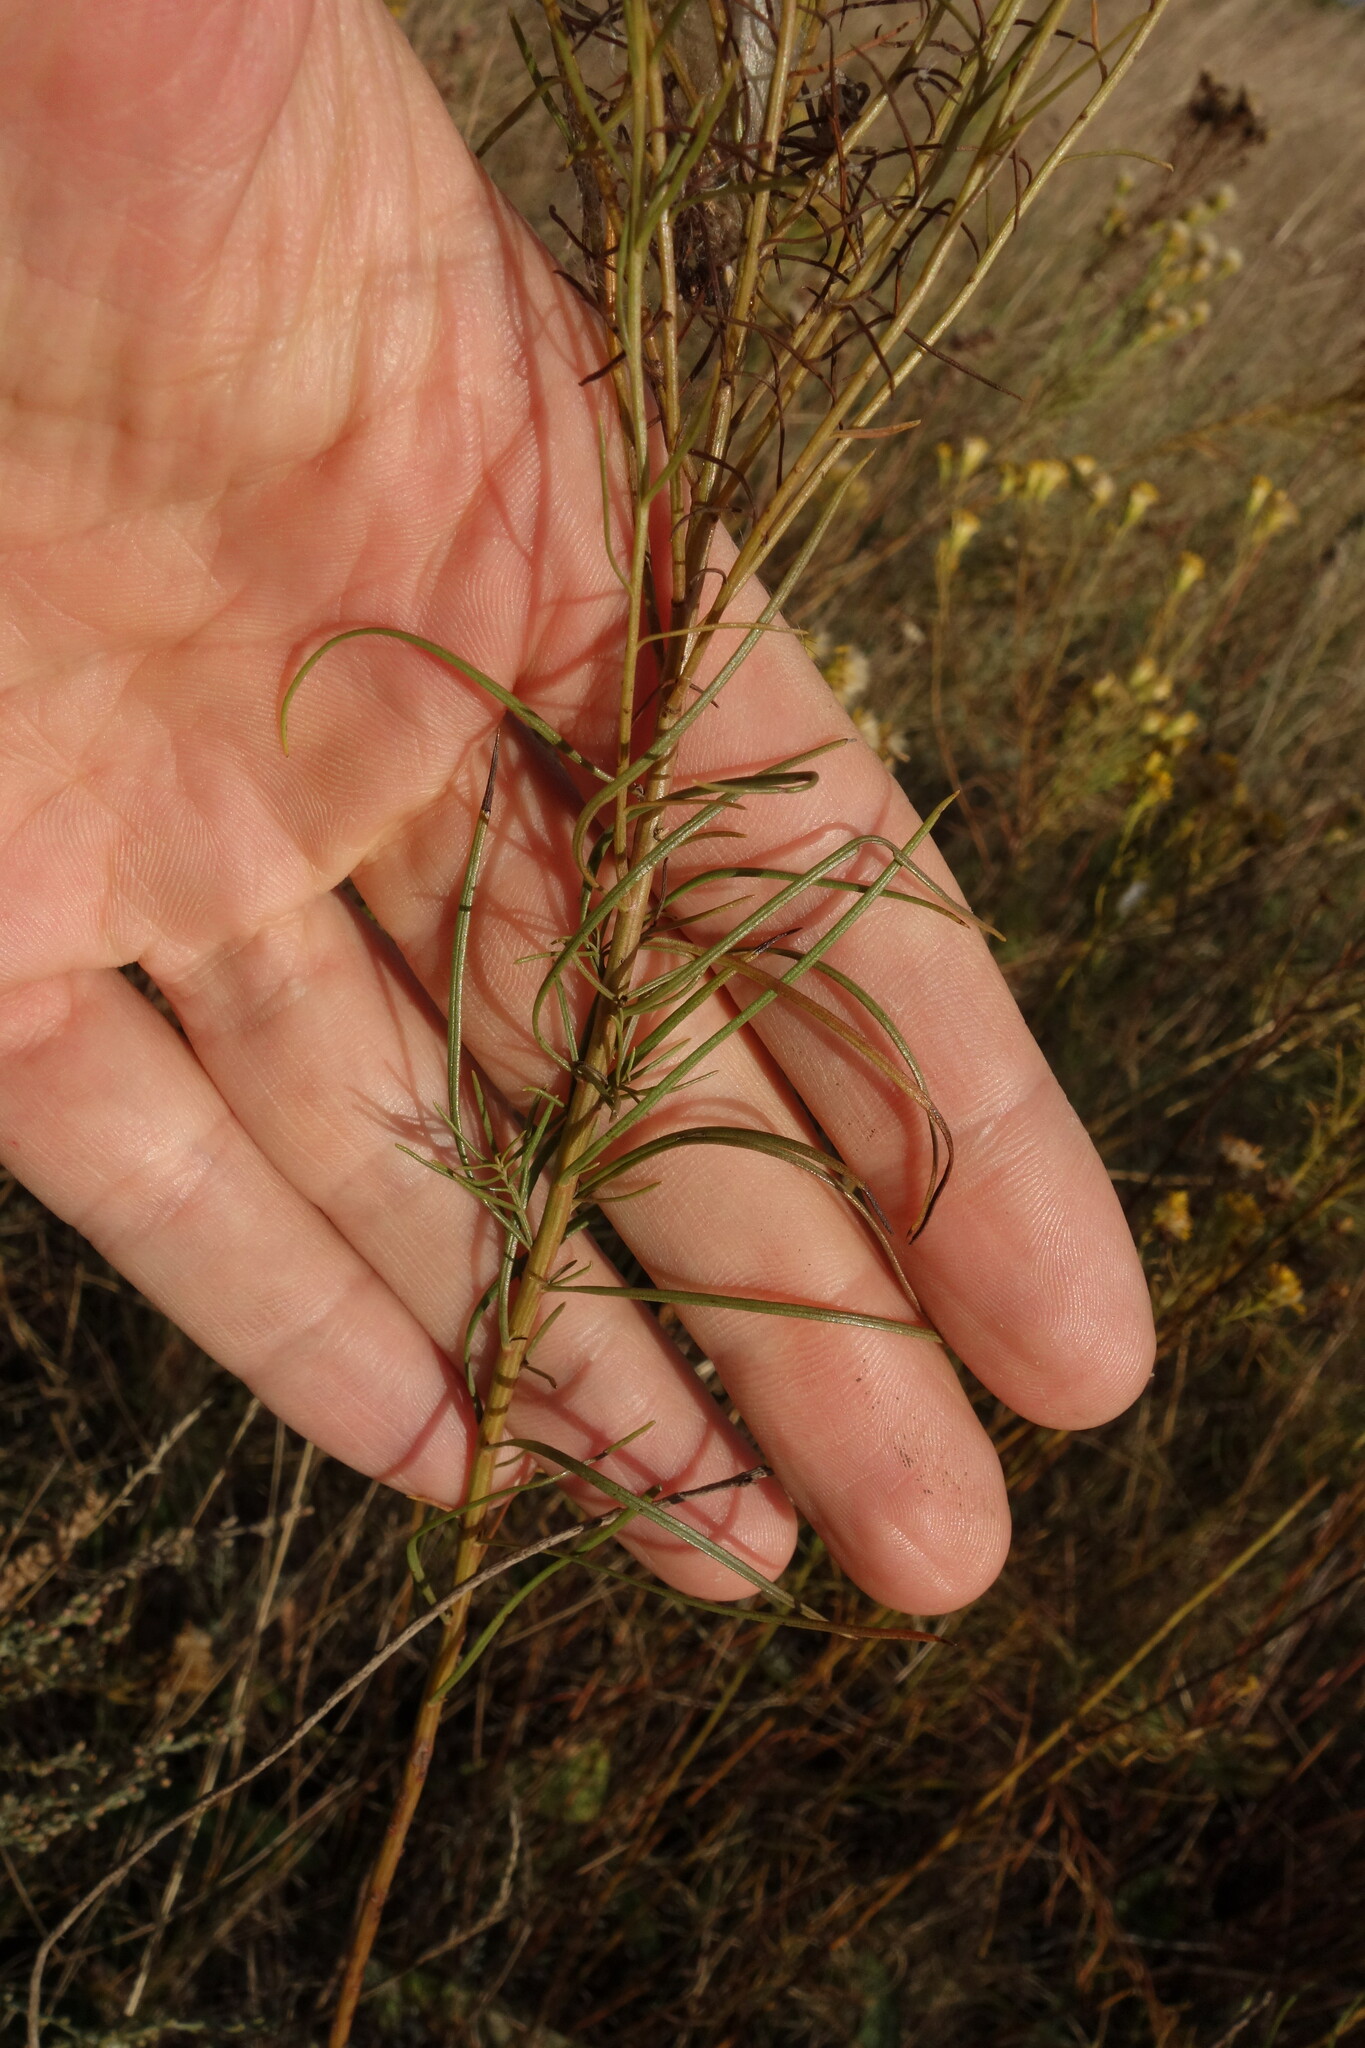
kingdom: Plantae
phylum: Tracheophyta
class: Magnoliopsida
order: Asterales
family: Asteraceae
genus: Galatella
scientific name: Galatella linosyris
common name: Goldilocks aster
